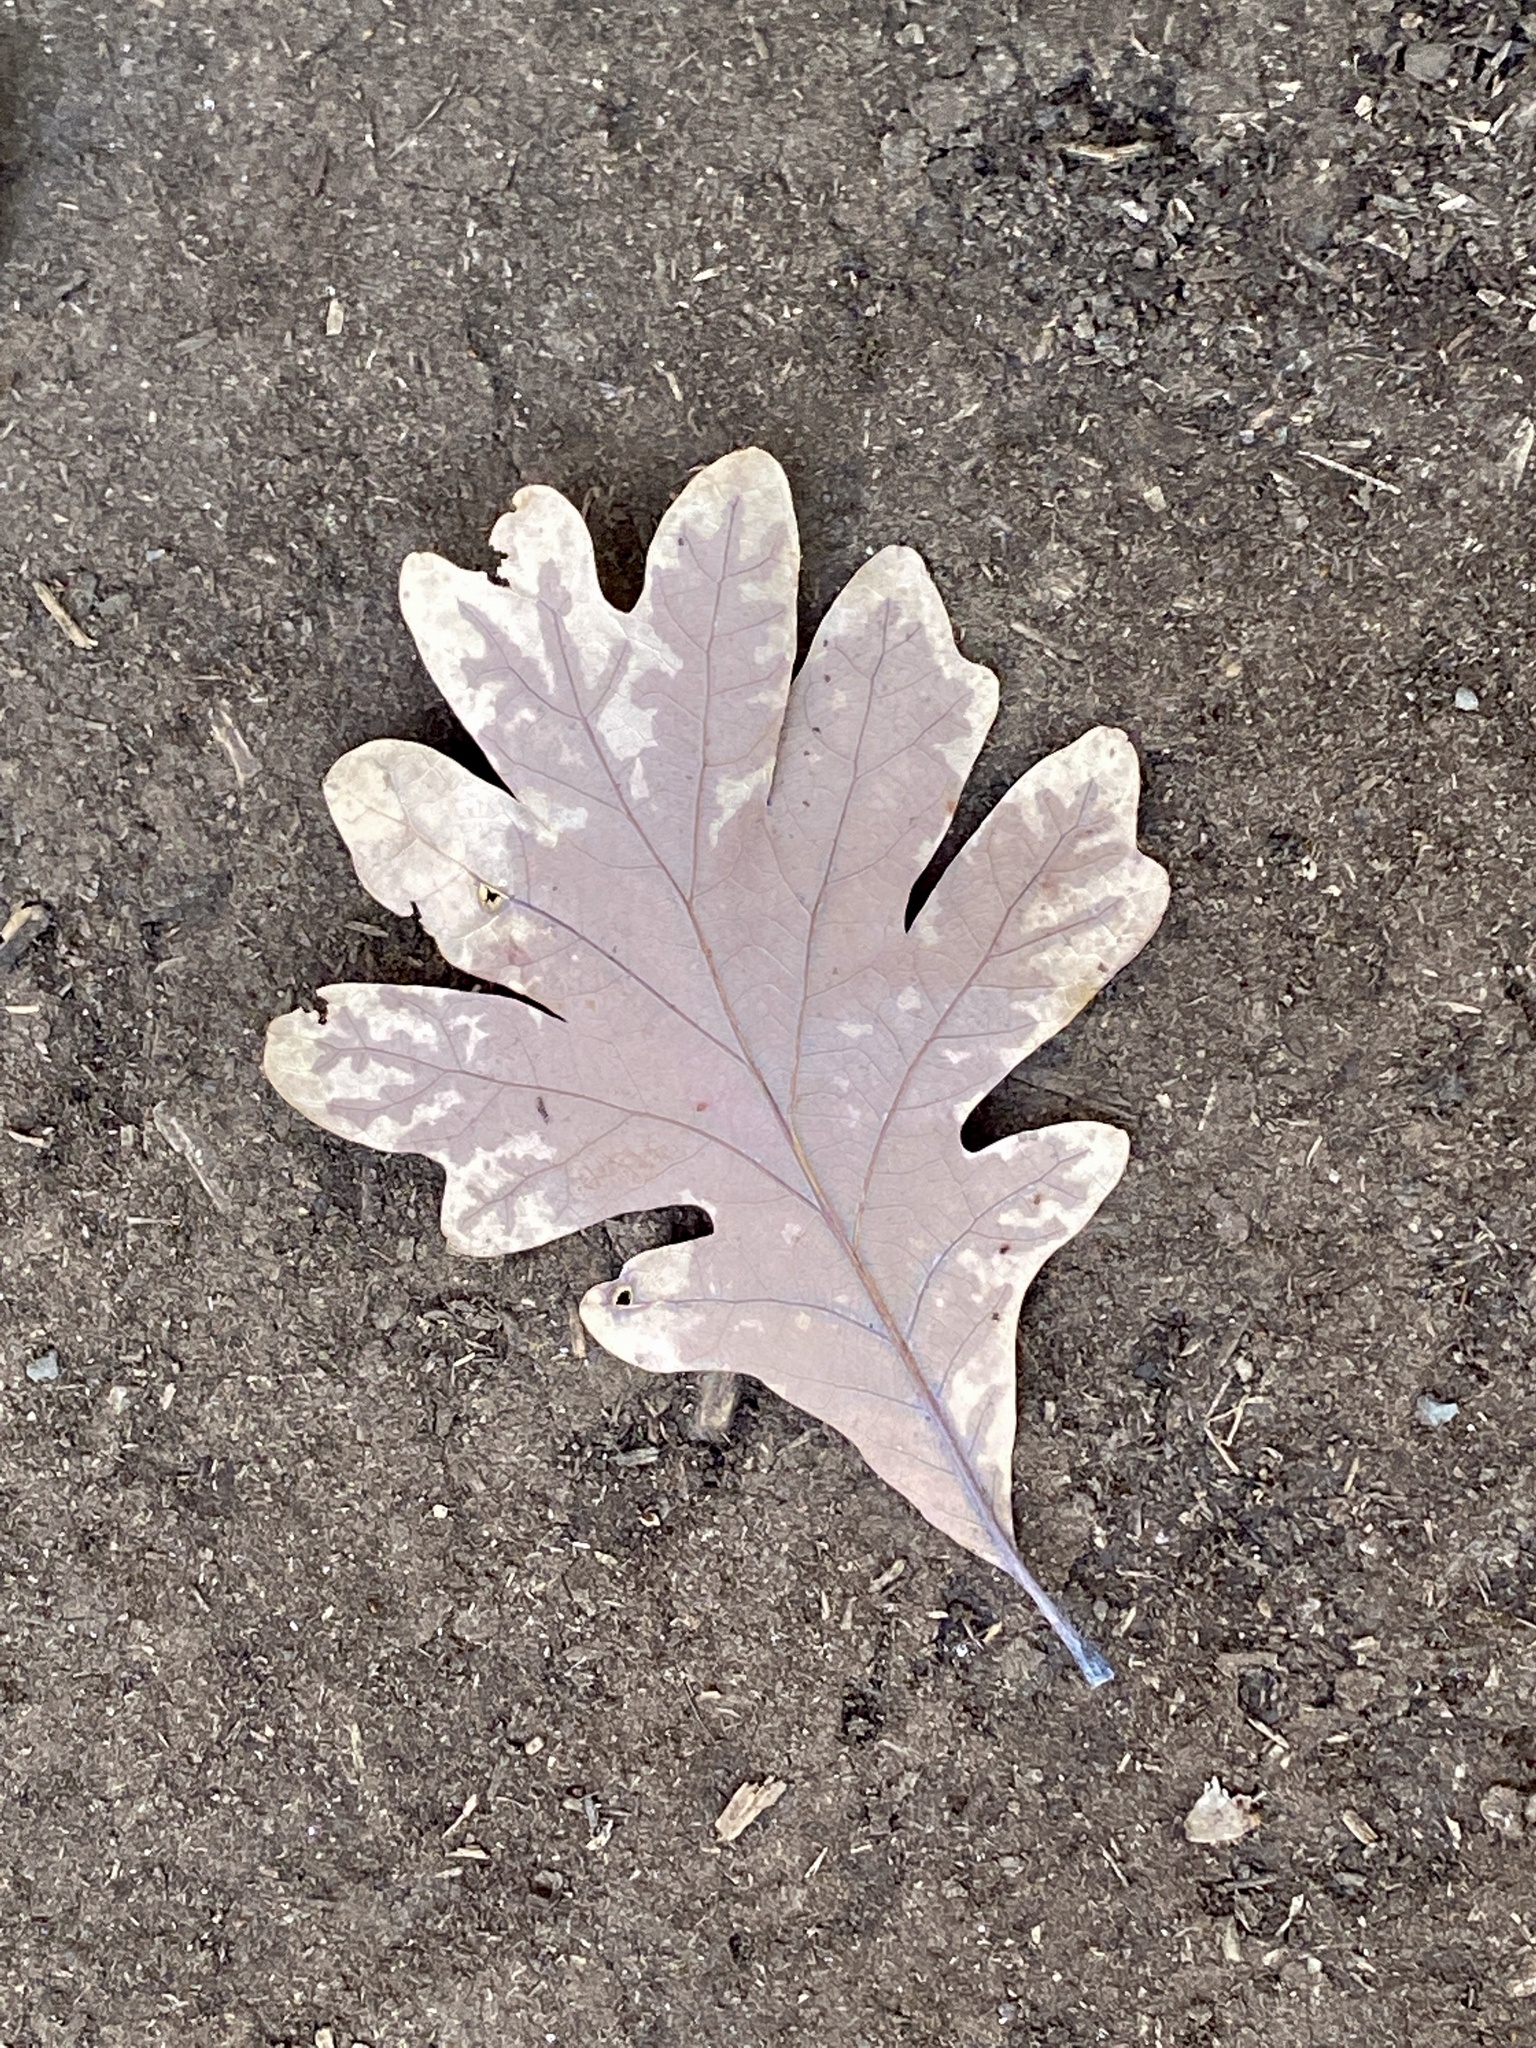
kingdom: Plantae
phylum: Tracheophyta
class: Magnoliopsida
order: Fagales
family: Fagaceae
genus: Quercus
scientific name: Quercus alba
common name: White oak
